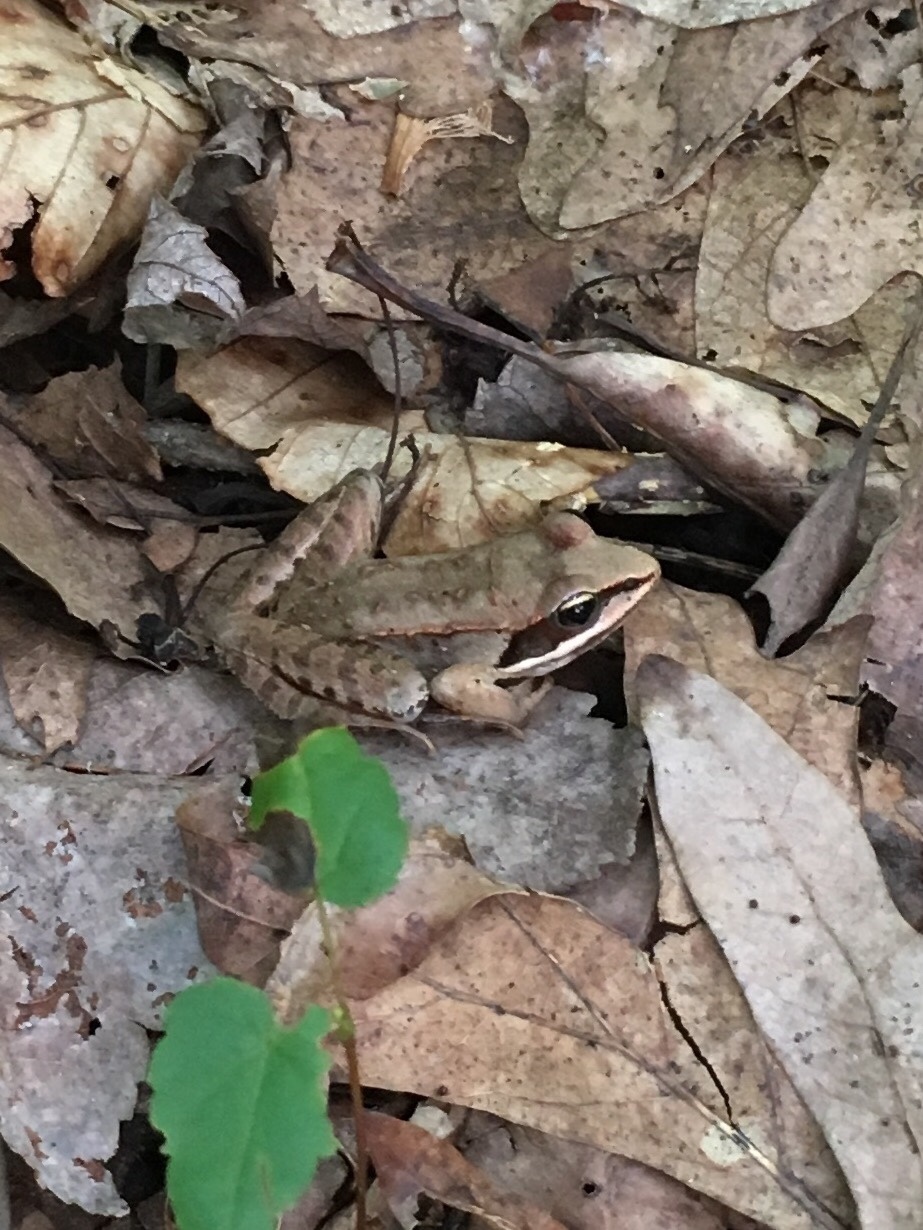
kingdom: Animalia
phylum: Chordata
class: Amphibia
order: Anura
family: Ranidae
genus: Lithobates
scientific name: Lithobates sylvaticus
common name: Wood frog
